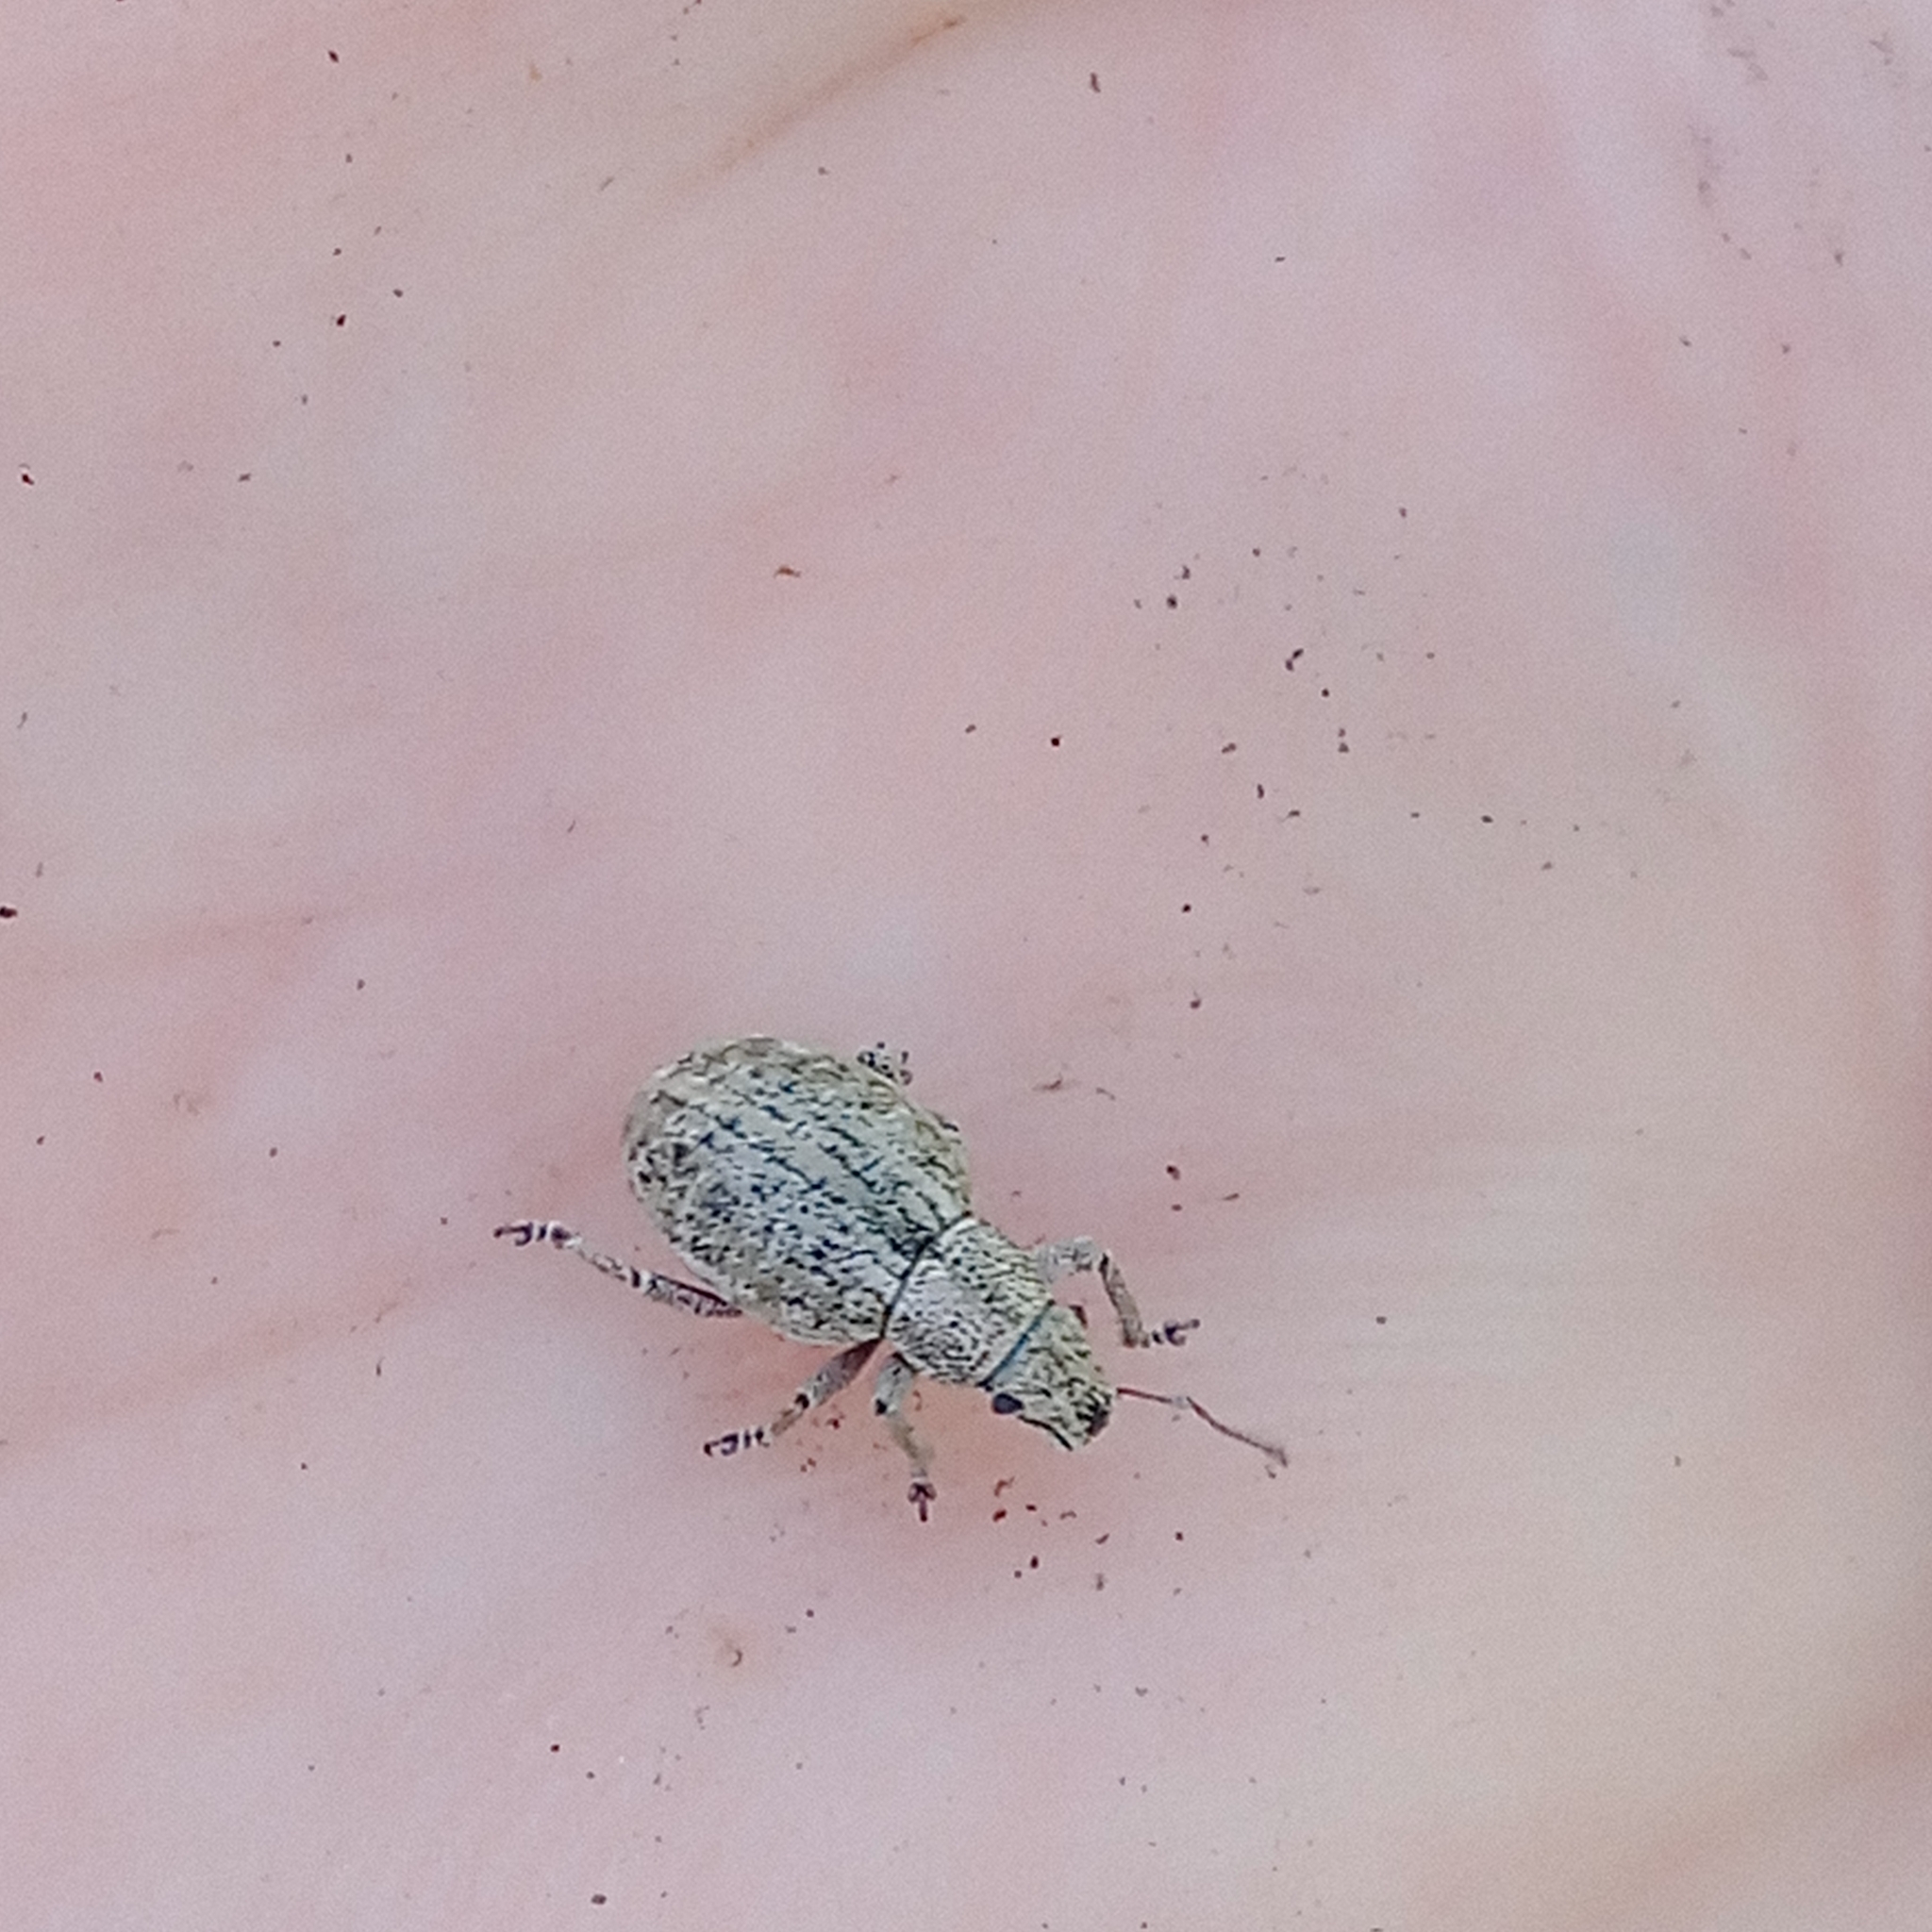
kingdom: Animalia
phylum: Arthropoda
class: Insecta
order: Coleoptera
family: Curculionidae
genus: Strophosoma
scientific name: Strophosoma capitatum
